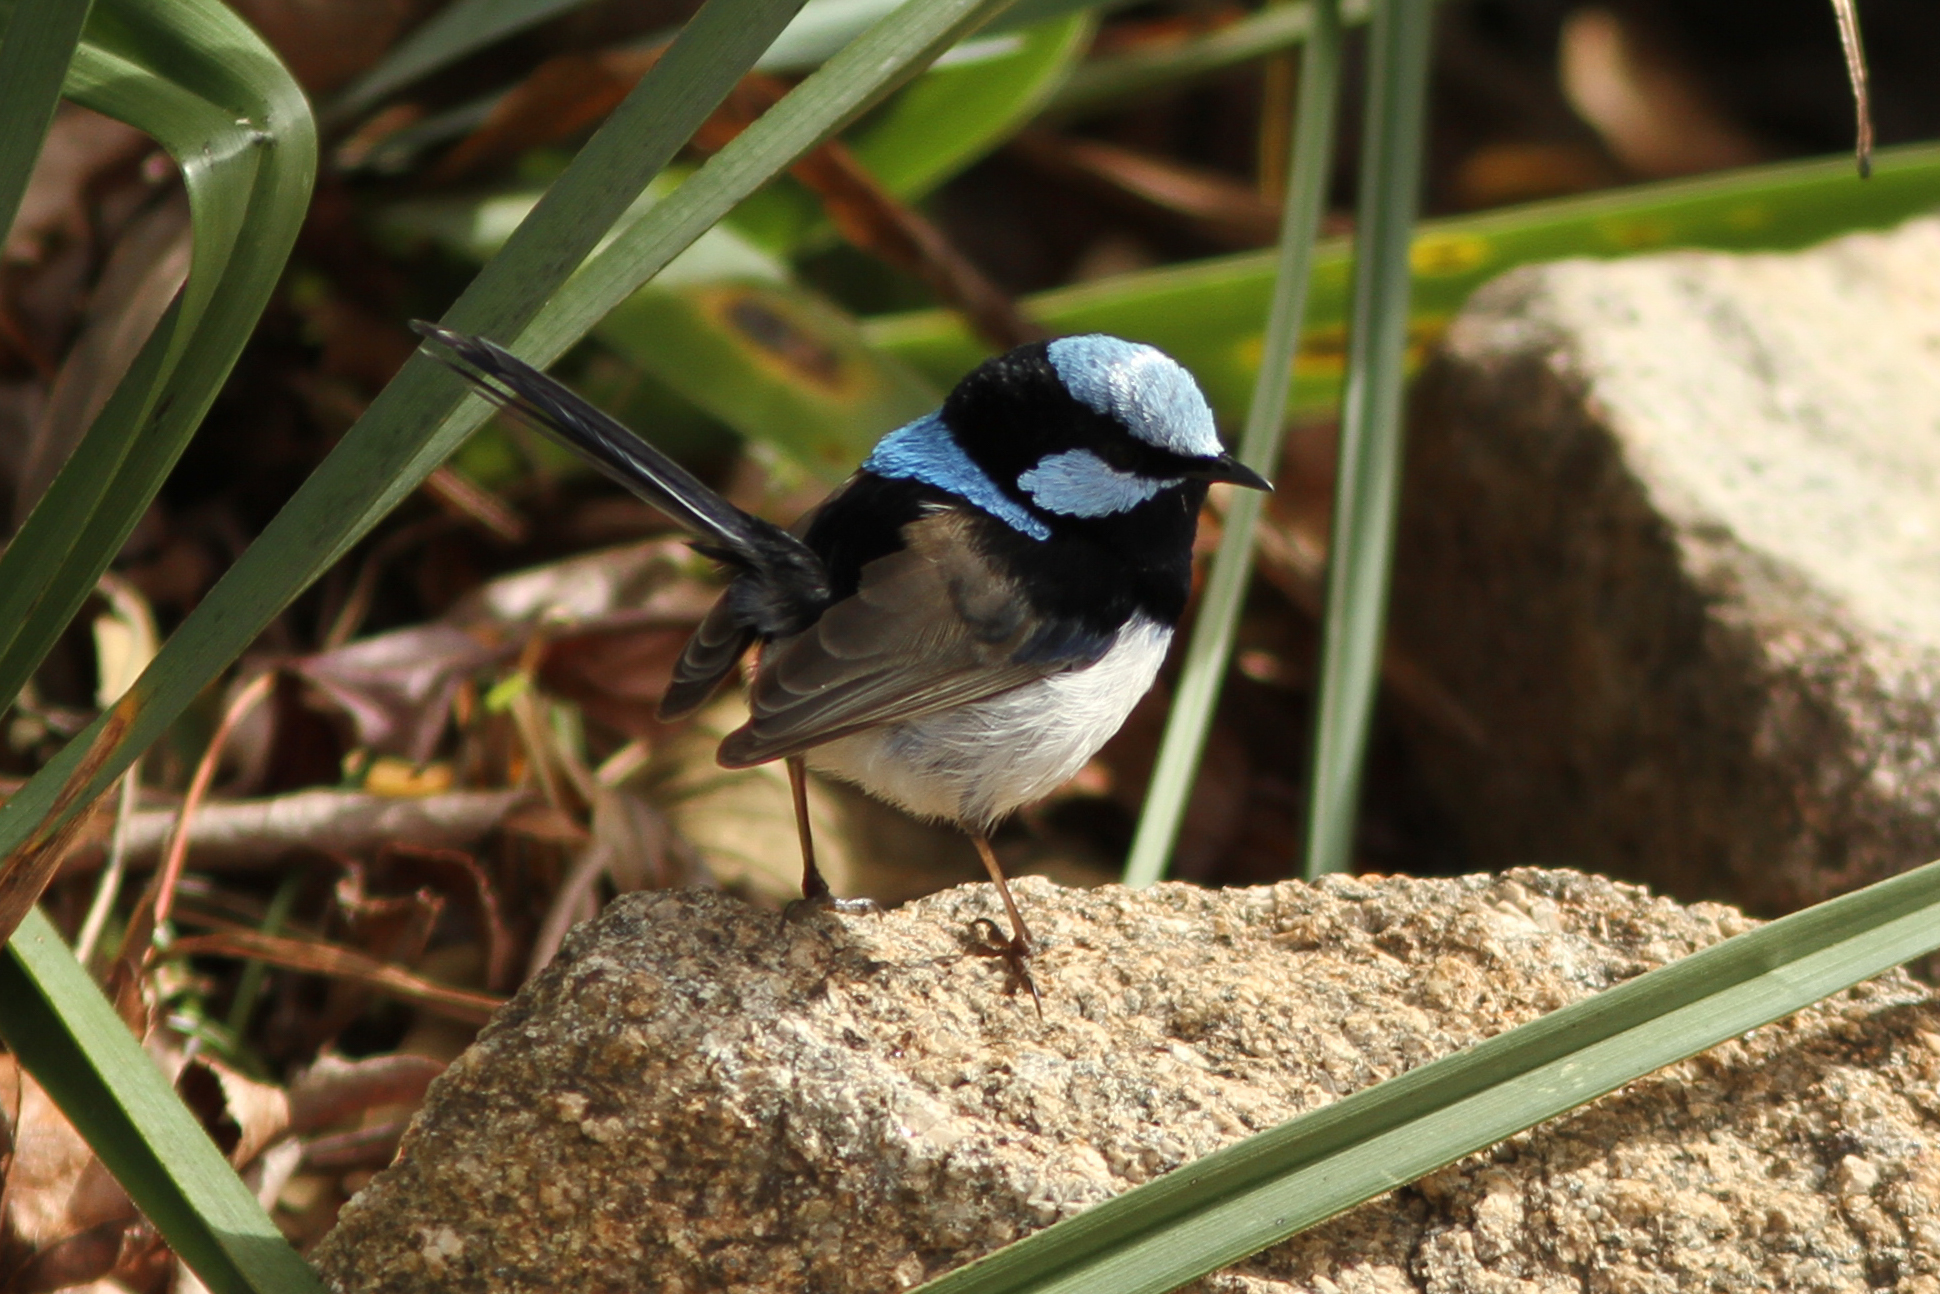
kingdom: Animalia
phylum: Chordata
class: Aves
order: Passeriformes
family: Maluridae
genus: Malurus
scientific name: Malurus cyaneus
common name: Superb fairywren
